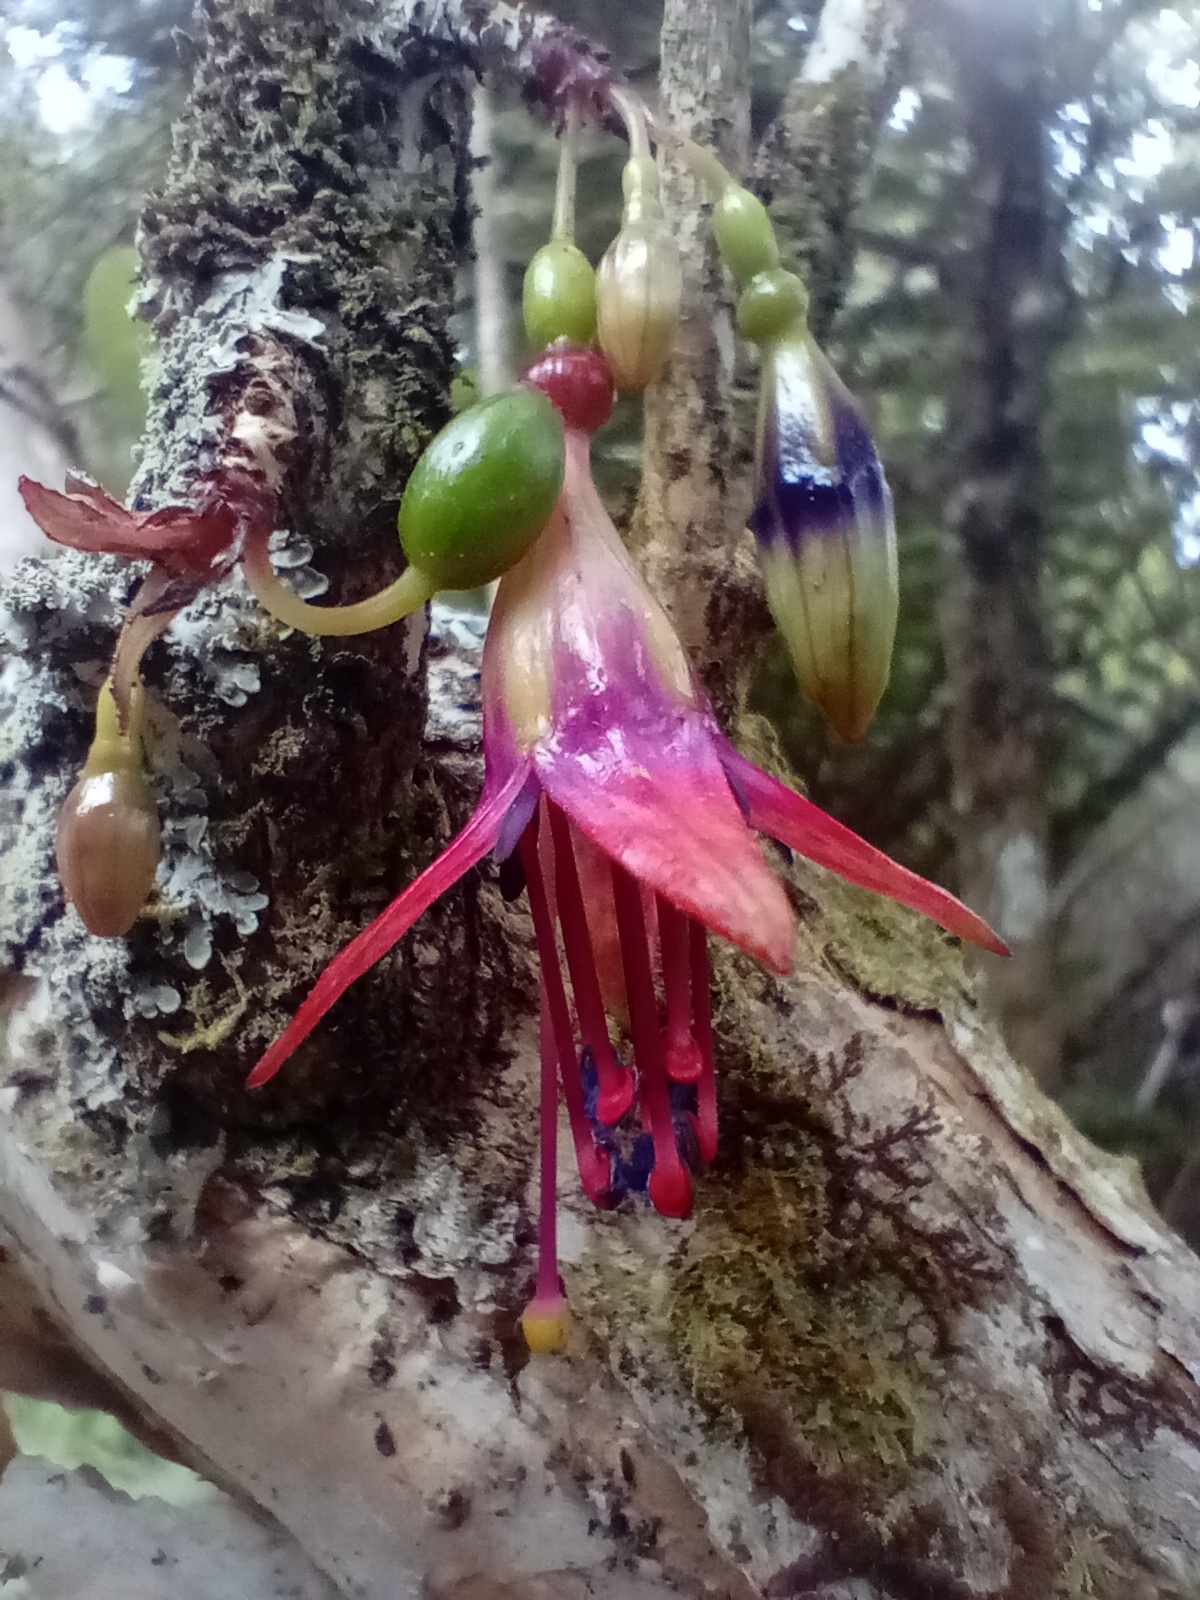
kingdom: Plantae
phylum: Tracheophyta
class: Magnoliopsida
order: Myrtales
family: Onagraceae
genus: Fuchsia
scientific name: Fuchsia excorticata
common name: Tree fuchsia
